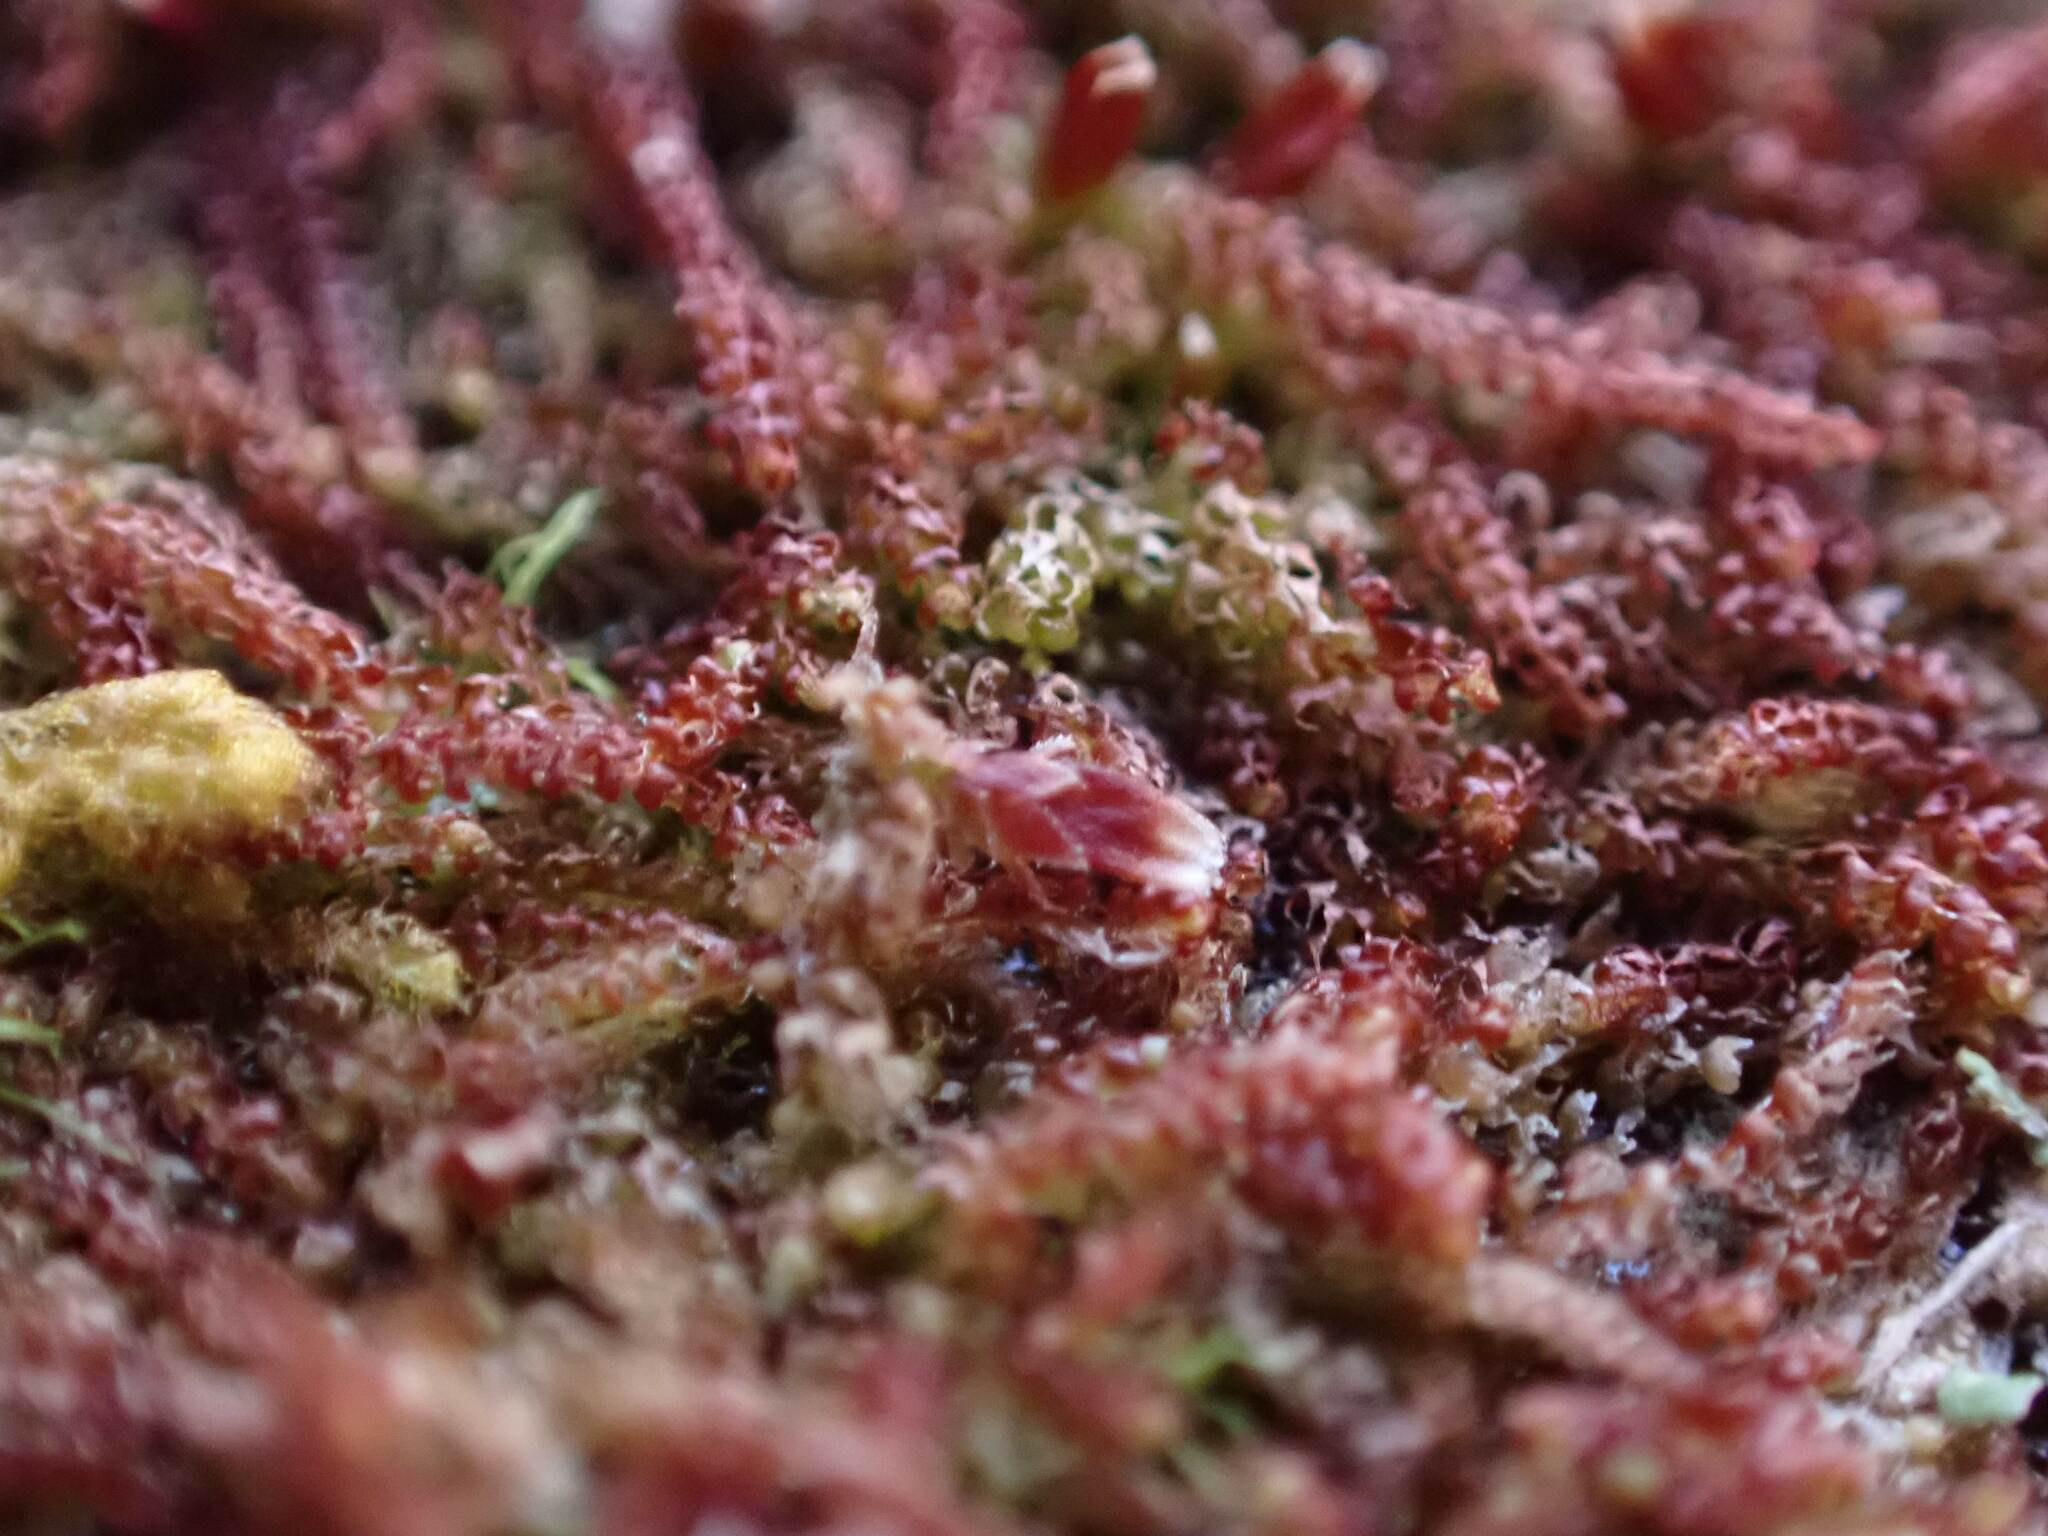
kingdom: Plantae
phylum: Marchantiophyta
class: Jungermanniopsida
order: Jungermanniales
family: Cephaloziaceae
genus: Nowellia
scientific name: Nowellia curvifolia
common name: Wood rustwort
